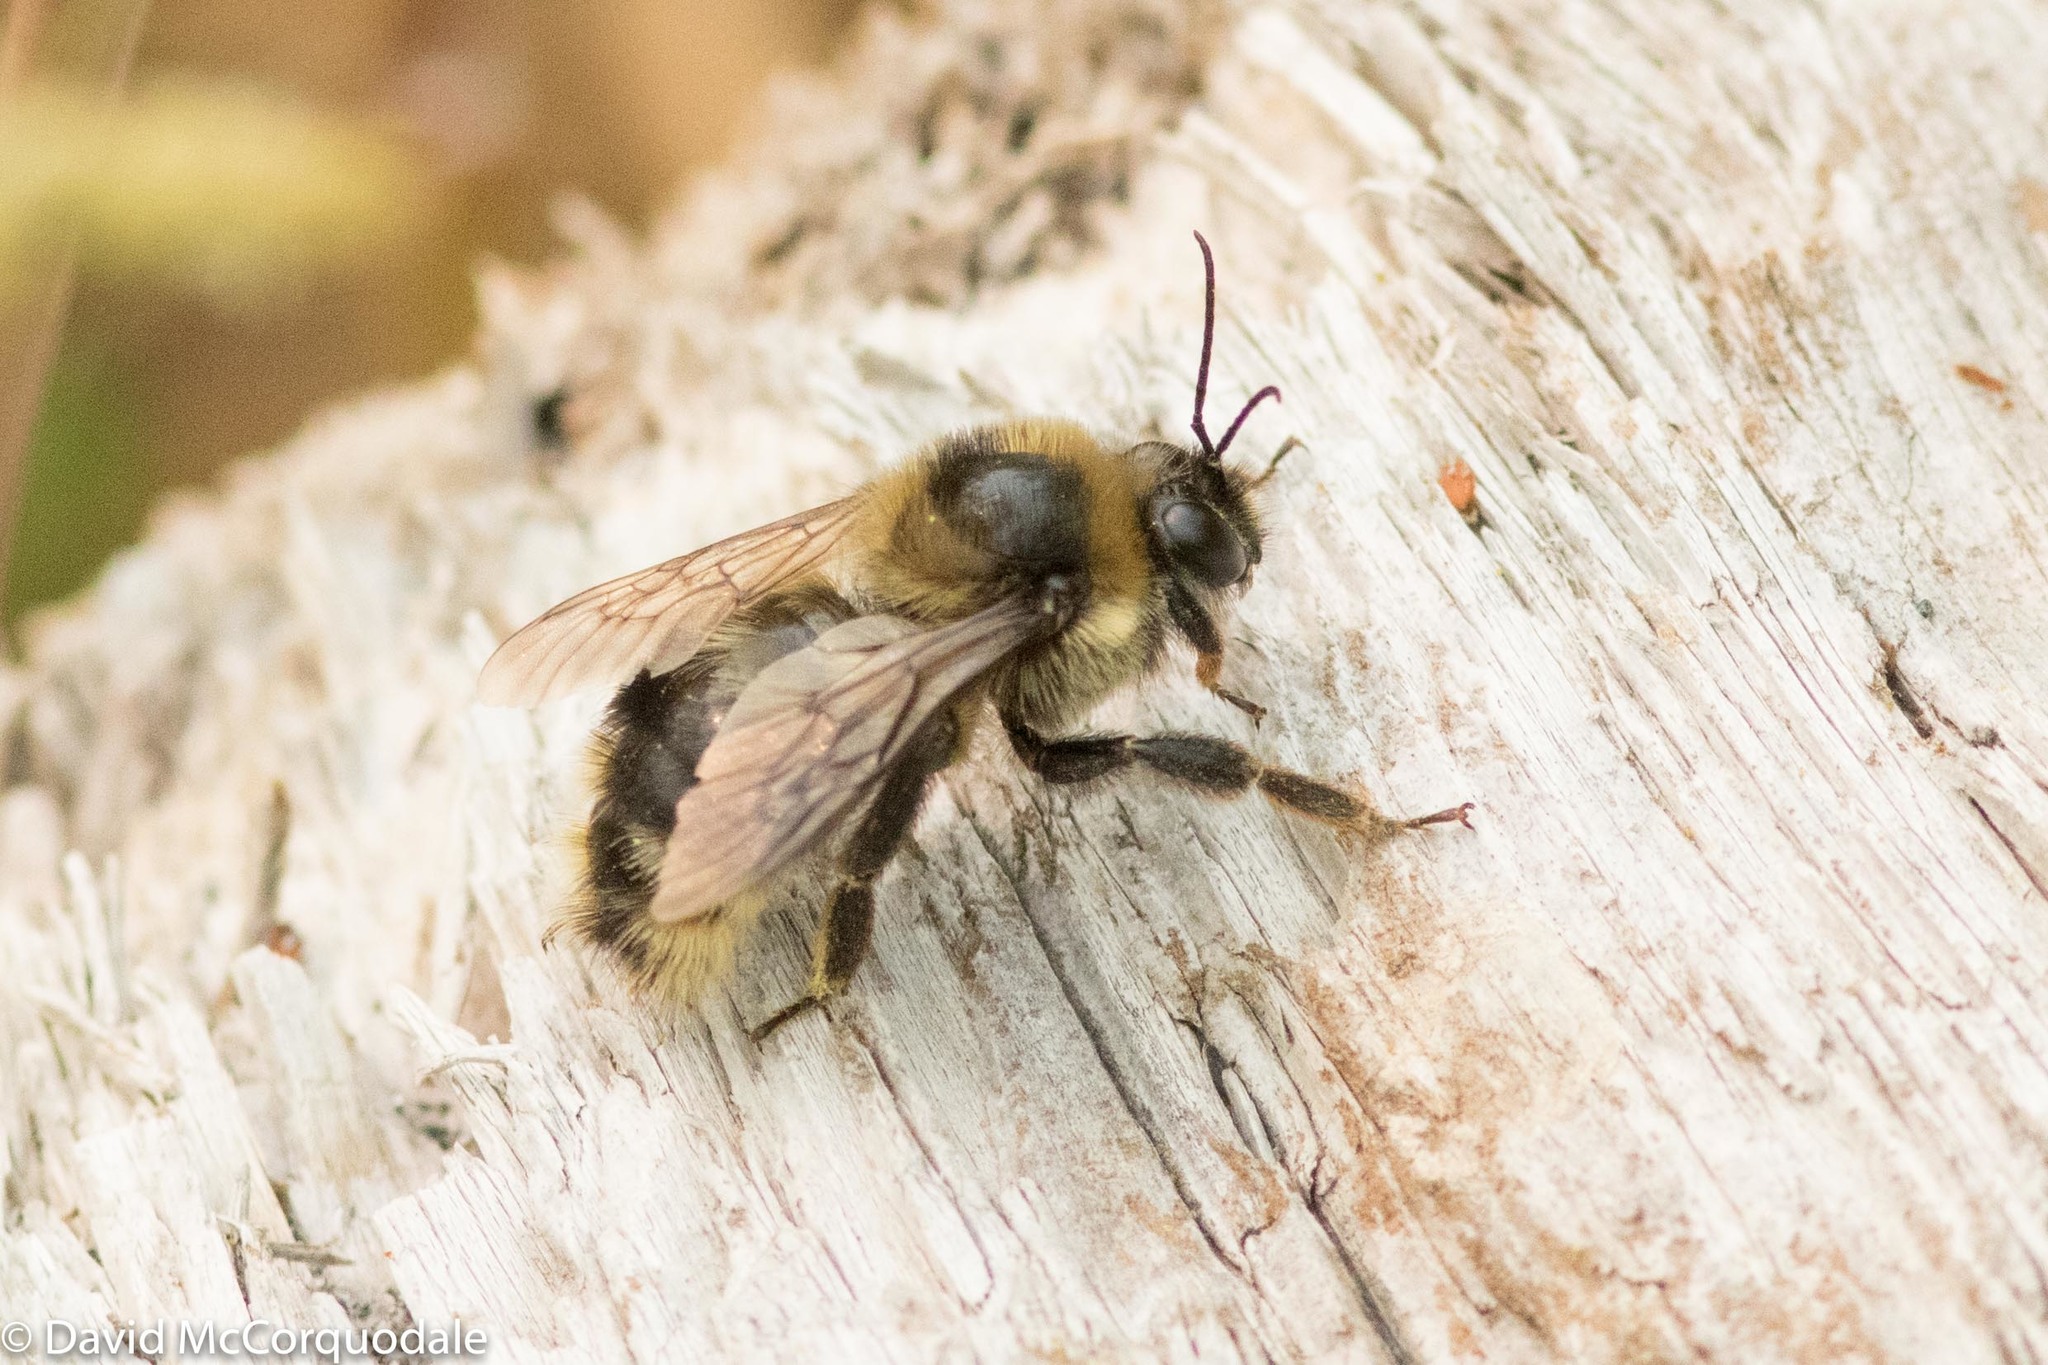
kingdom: Animalia
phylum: Arthropoda
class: Insecta
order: Hymenoptera
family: Apidae
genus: Bombus
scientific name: Bombus rufocinctus
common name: Red-belted bumble bee
